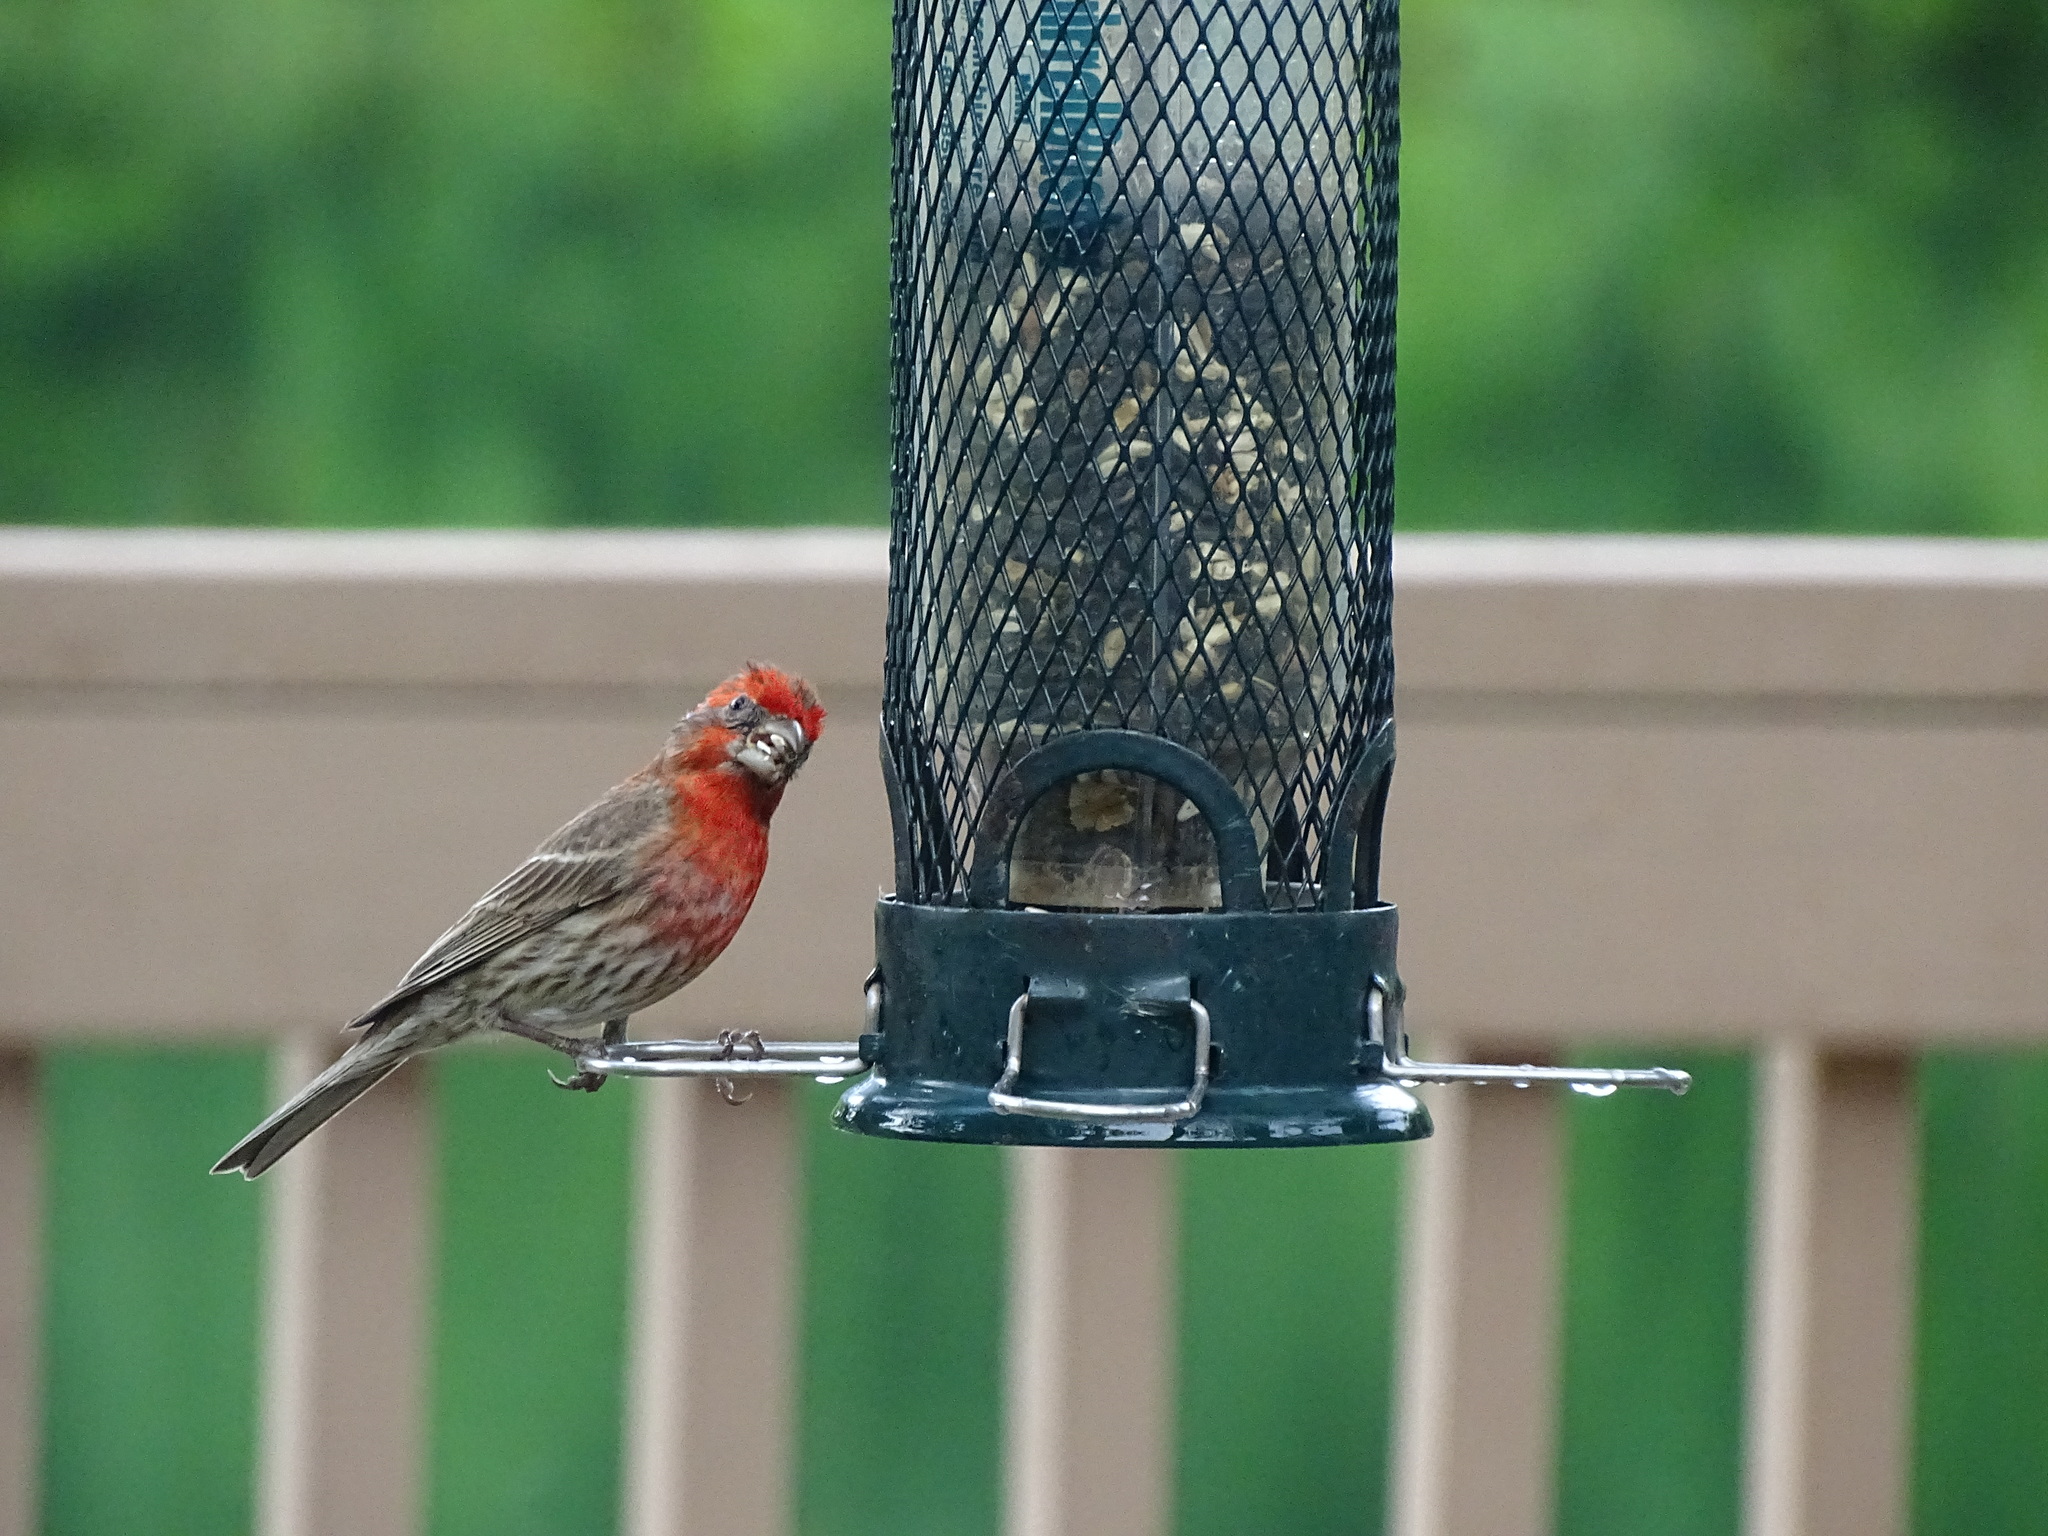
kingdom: Animalia
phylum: Chordata
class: Aves
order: Passeriformes
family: Fringillidae
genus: Haemorhous
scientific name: Haemorhous mexicanus
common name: House finch
